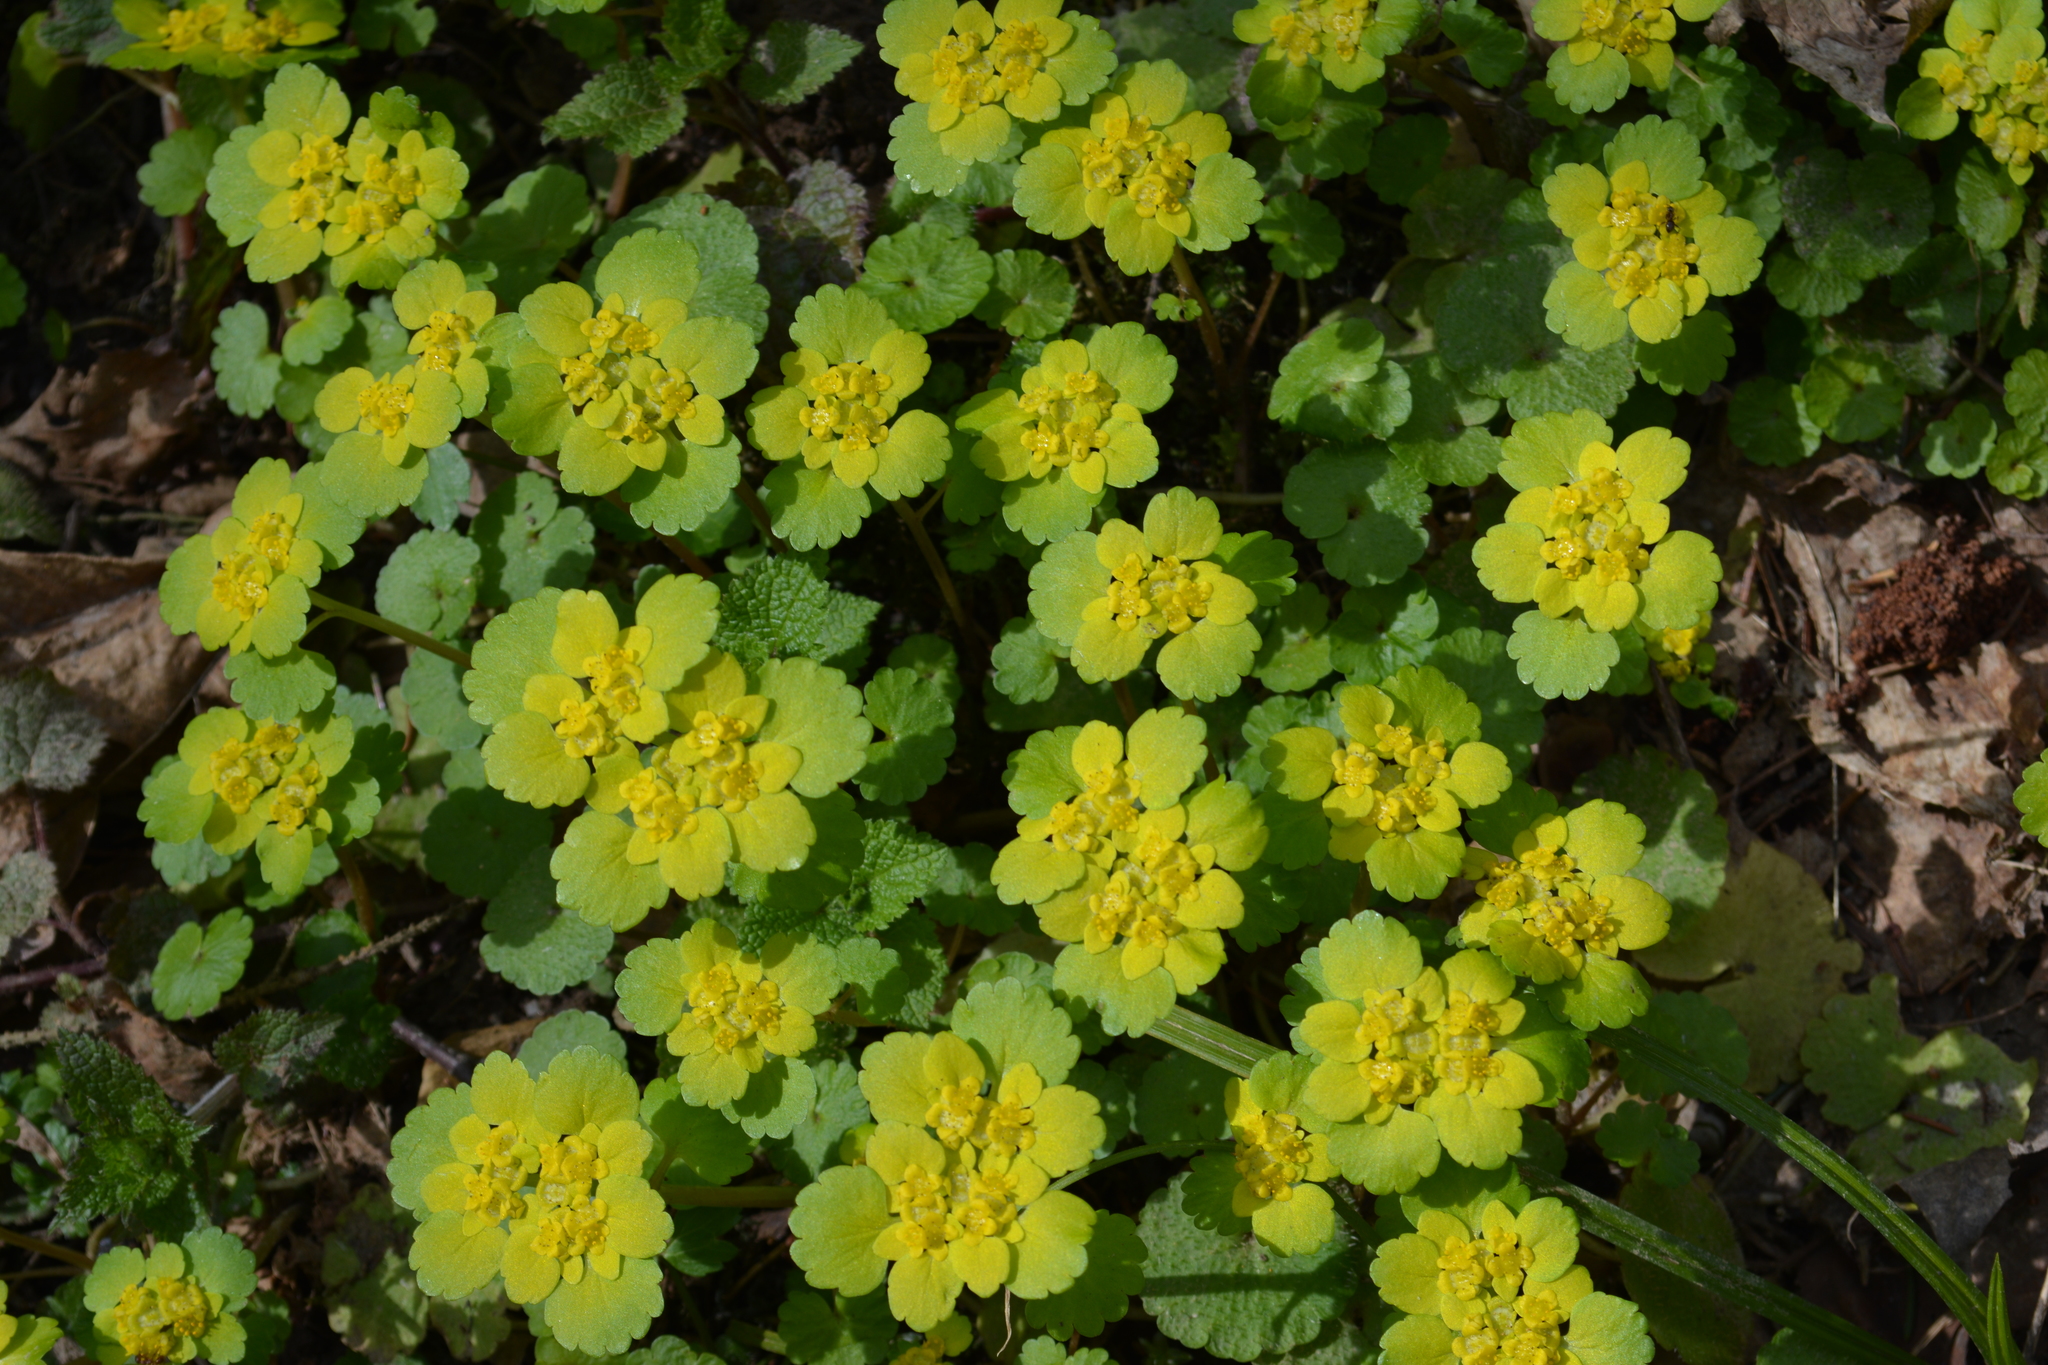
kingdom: Plantae
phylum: Tracheophyta
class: Magnoliopsida
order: Saxifragales
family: Saxifragaceae
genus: Chrysosplenium
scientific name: Chrysosplenium alternifolium
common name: Alternate-leaved golden-saxifrage
